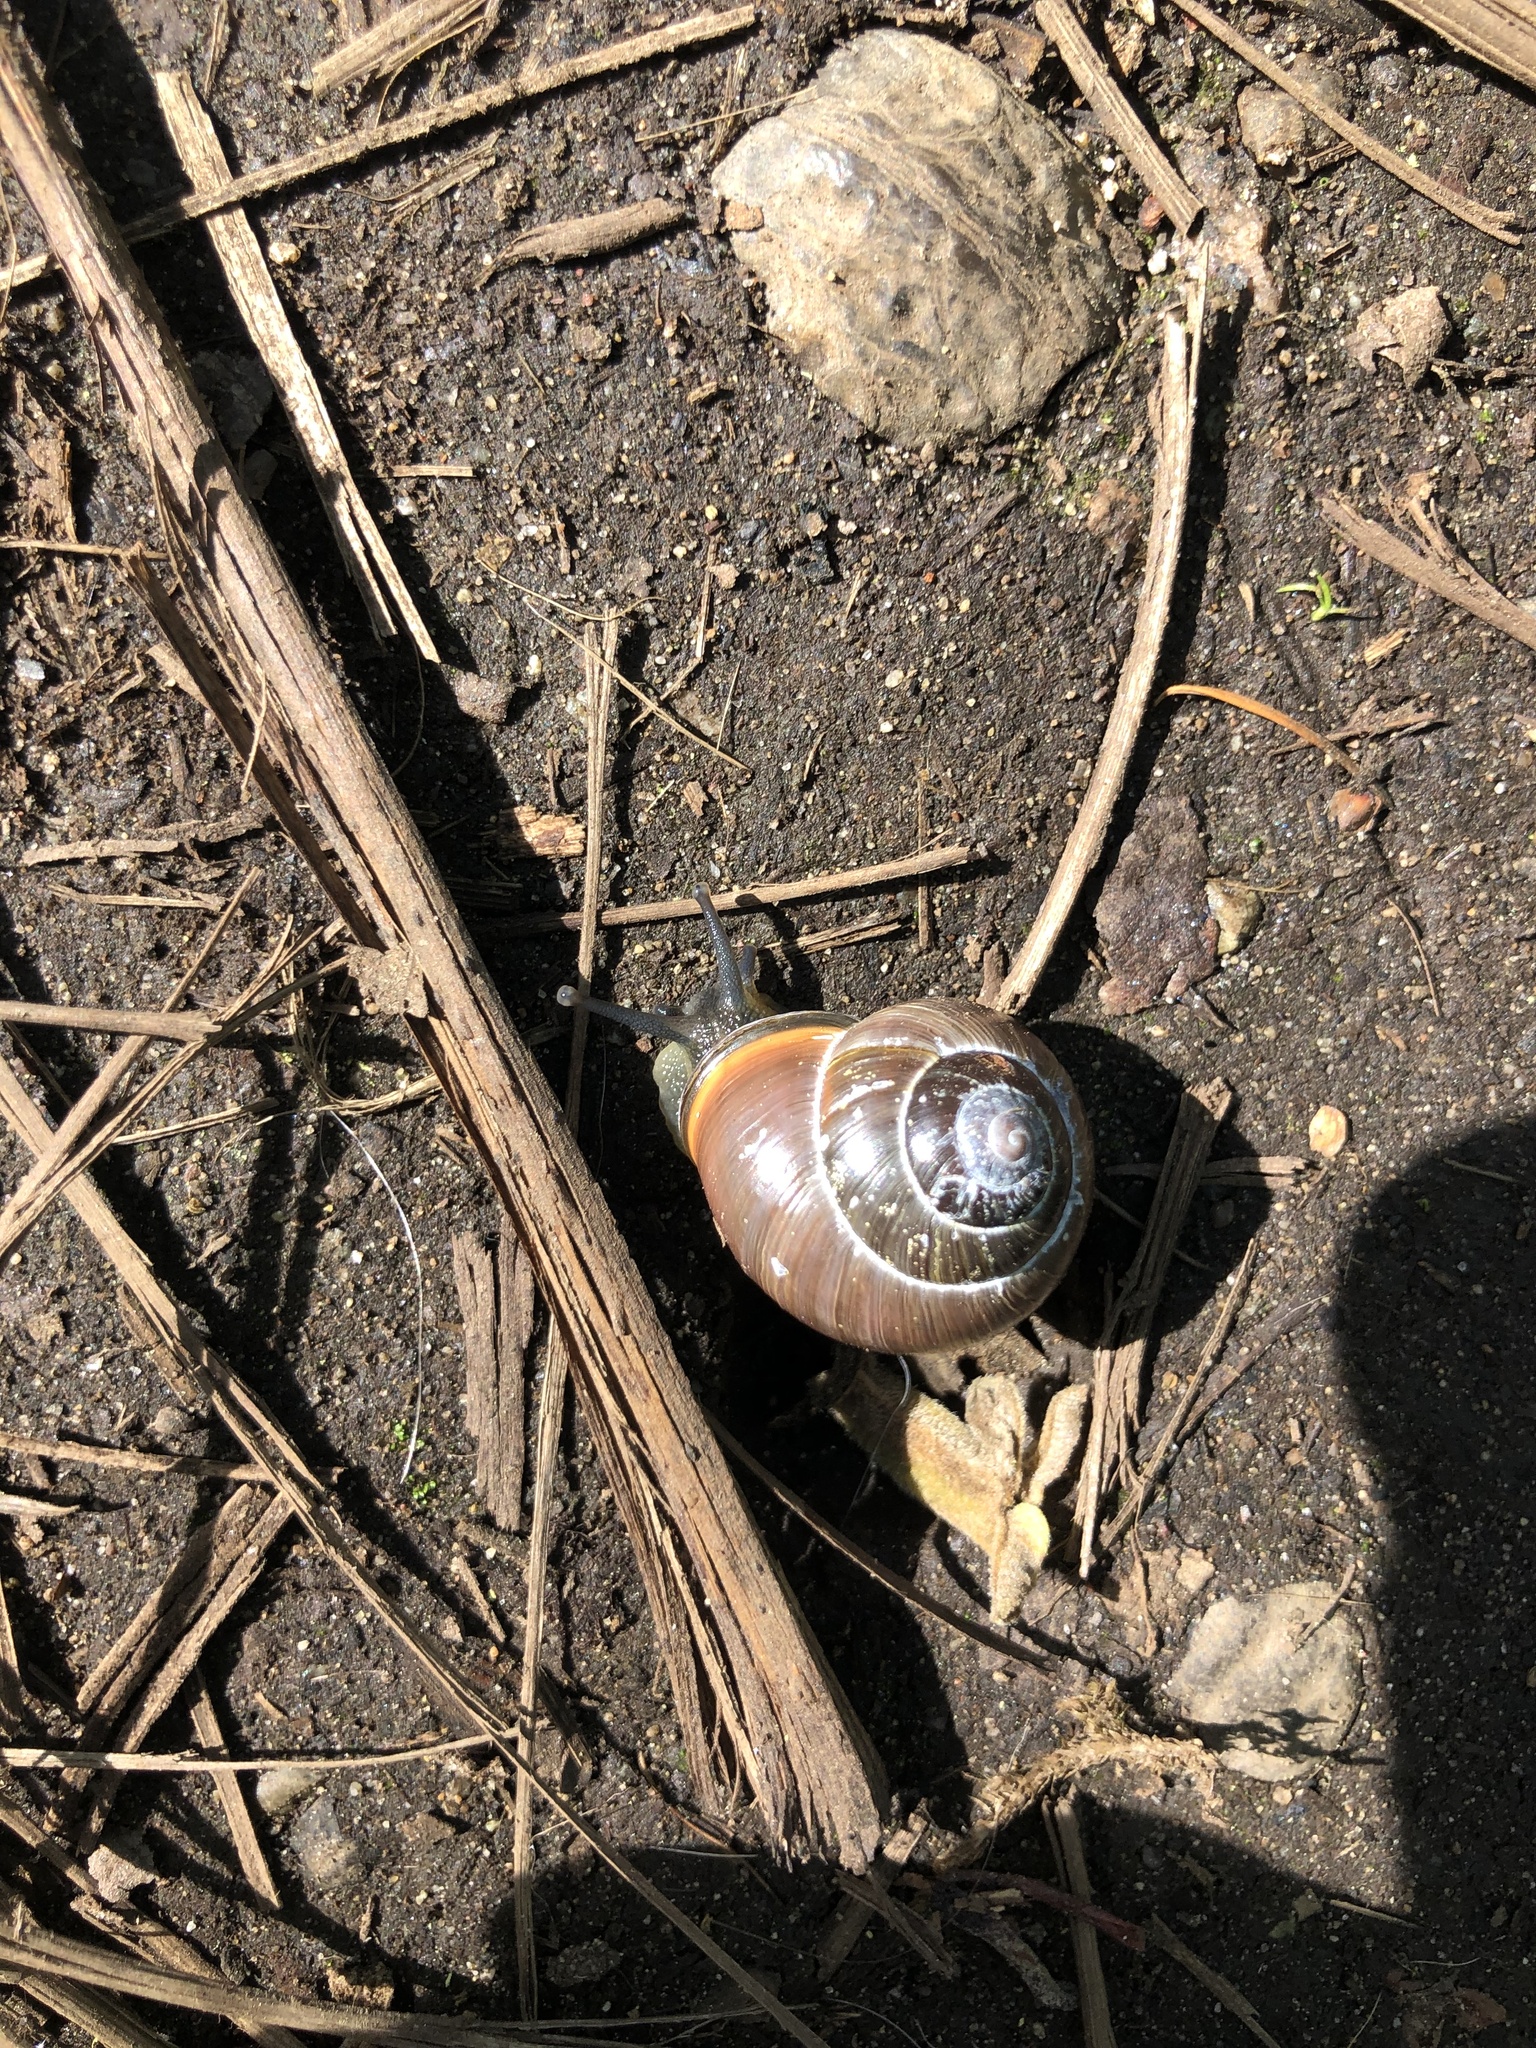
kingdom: Animalia
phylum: Mollusca
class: Gastropoda
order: Stylommatophora
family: Helicidae
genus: Cepaea
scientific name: Cepaea nemoralis
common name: Grovesnail
